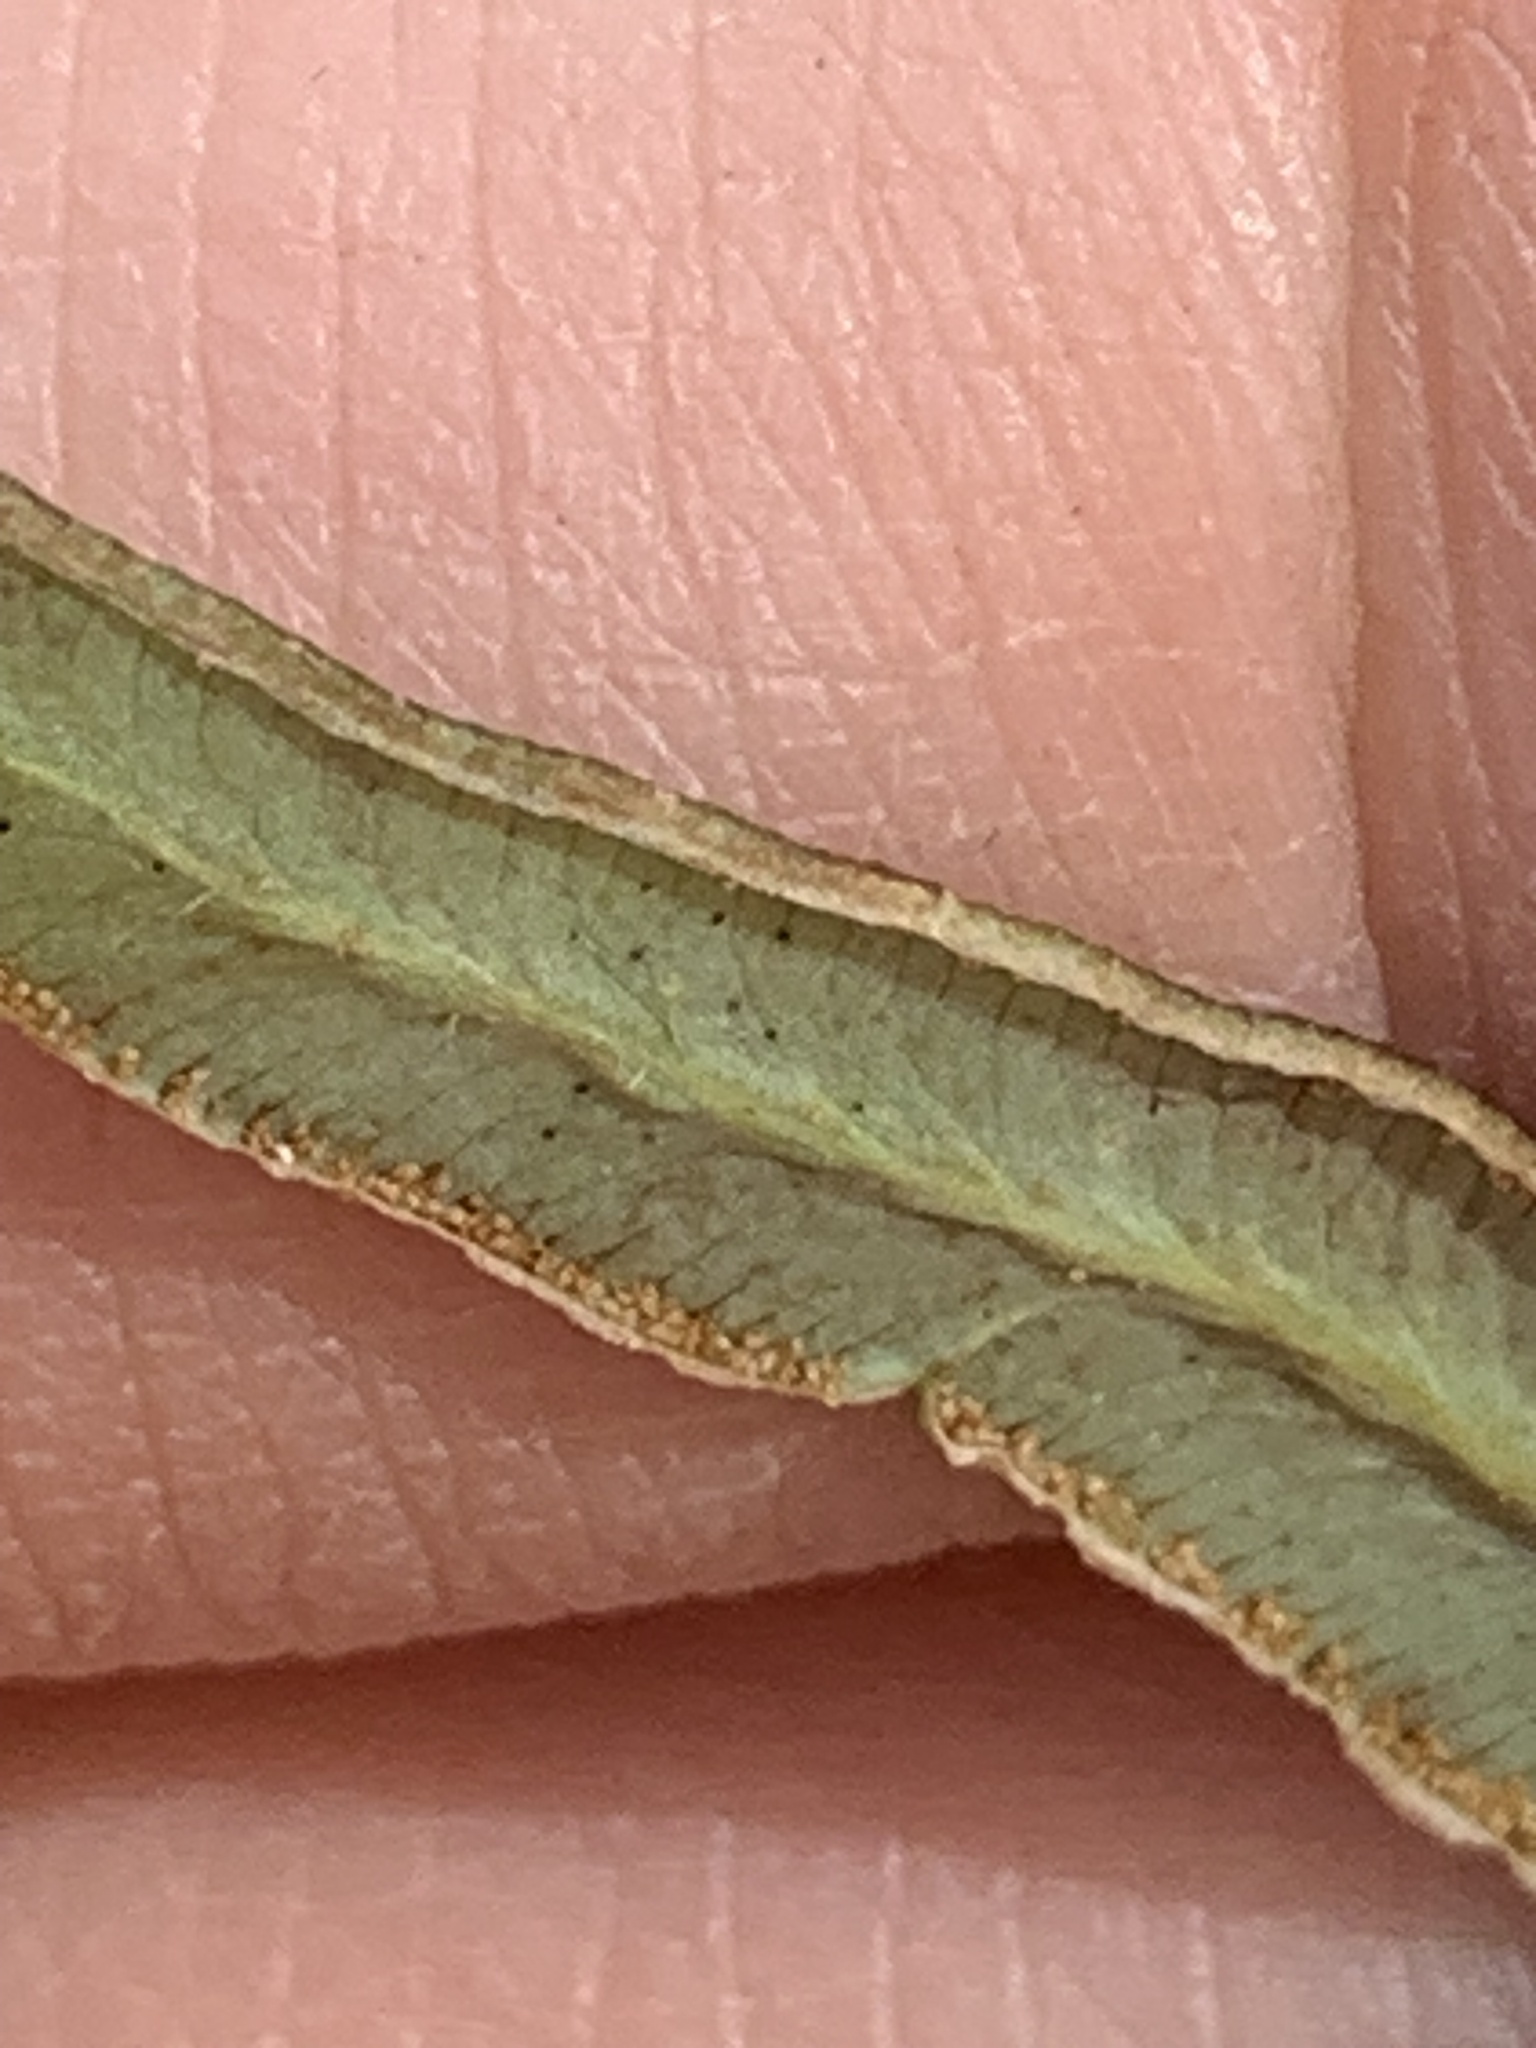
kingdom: Plantae
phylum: Tracheophyta
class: Polypodiopsida
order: Polypodiales
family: Pteridaceae
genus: Pellaea
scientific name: Pellaea atropurpurea
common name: Hairy cliffbrake
